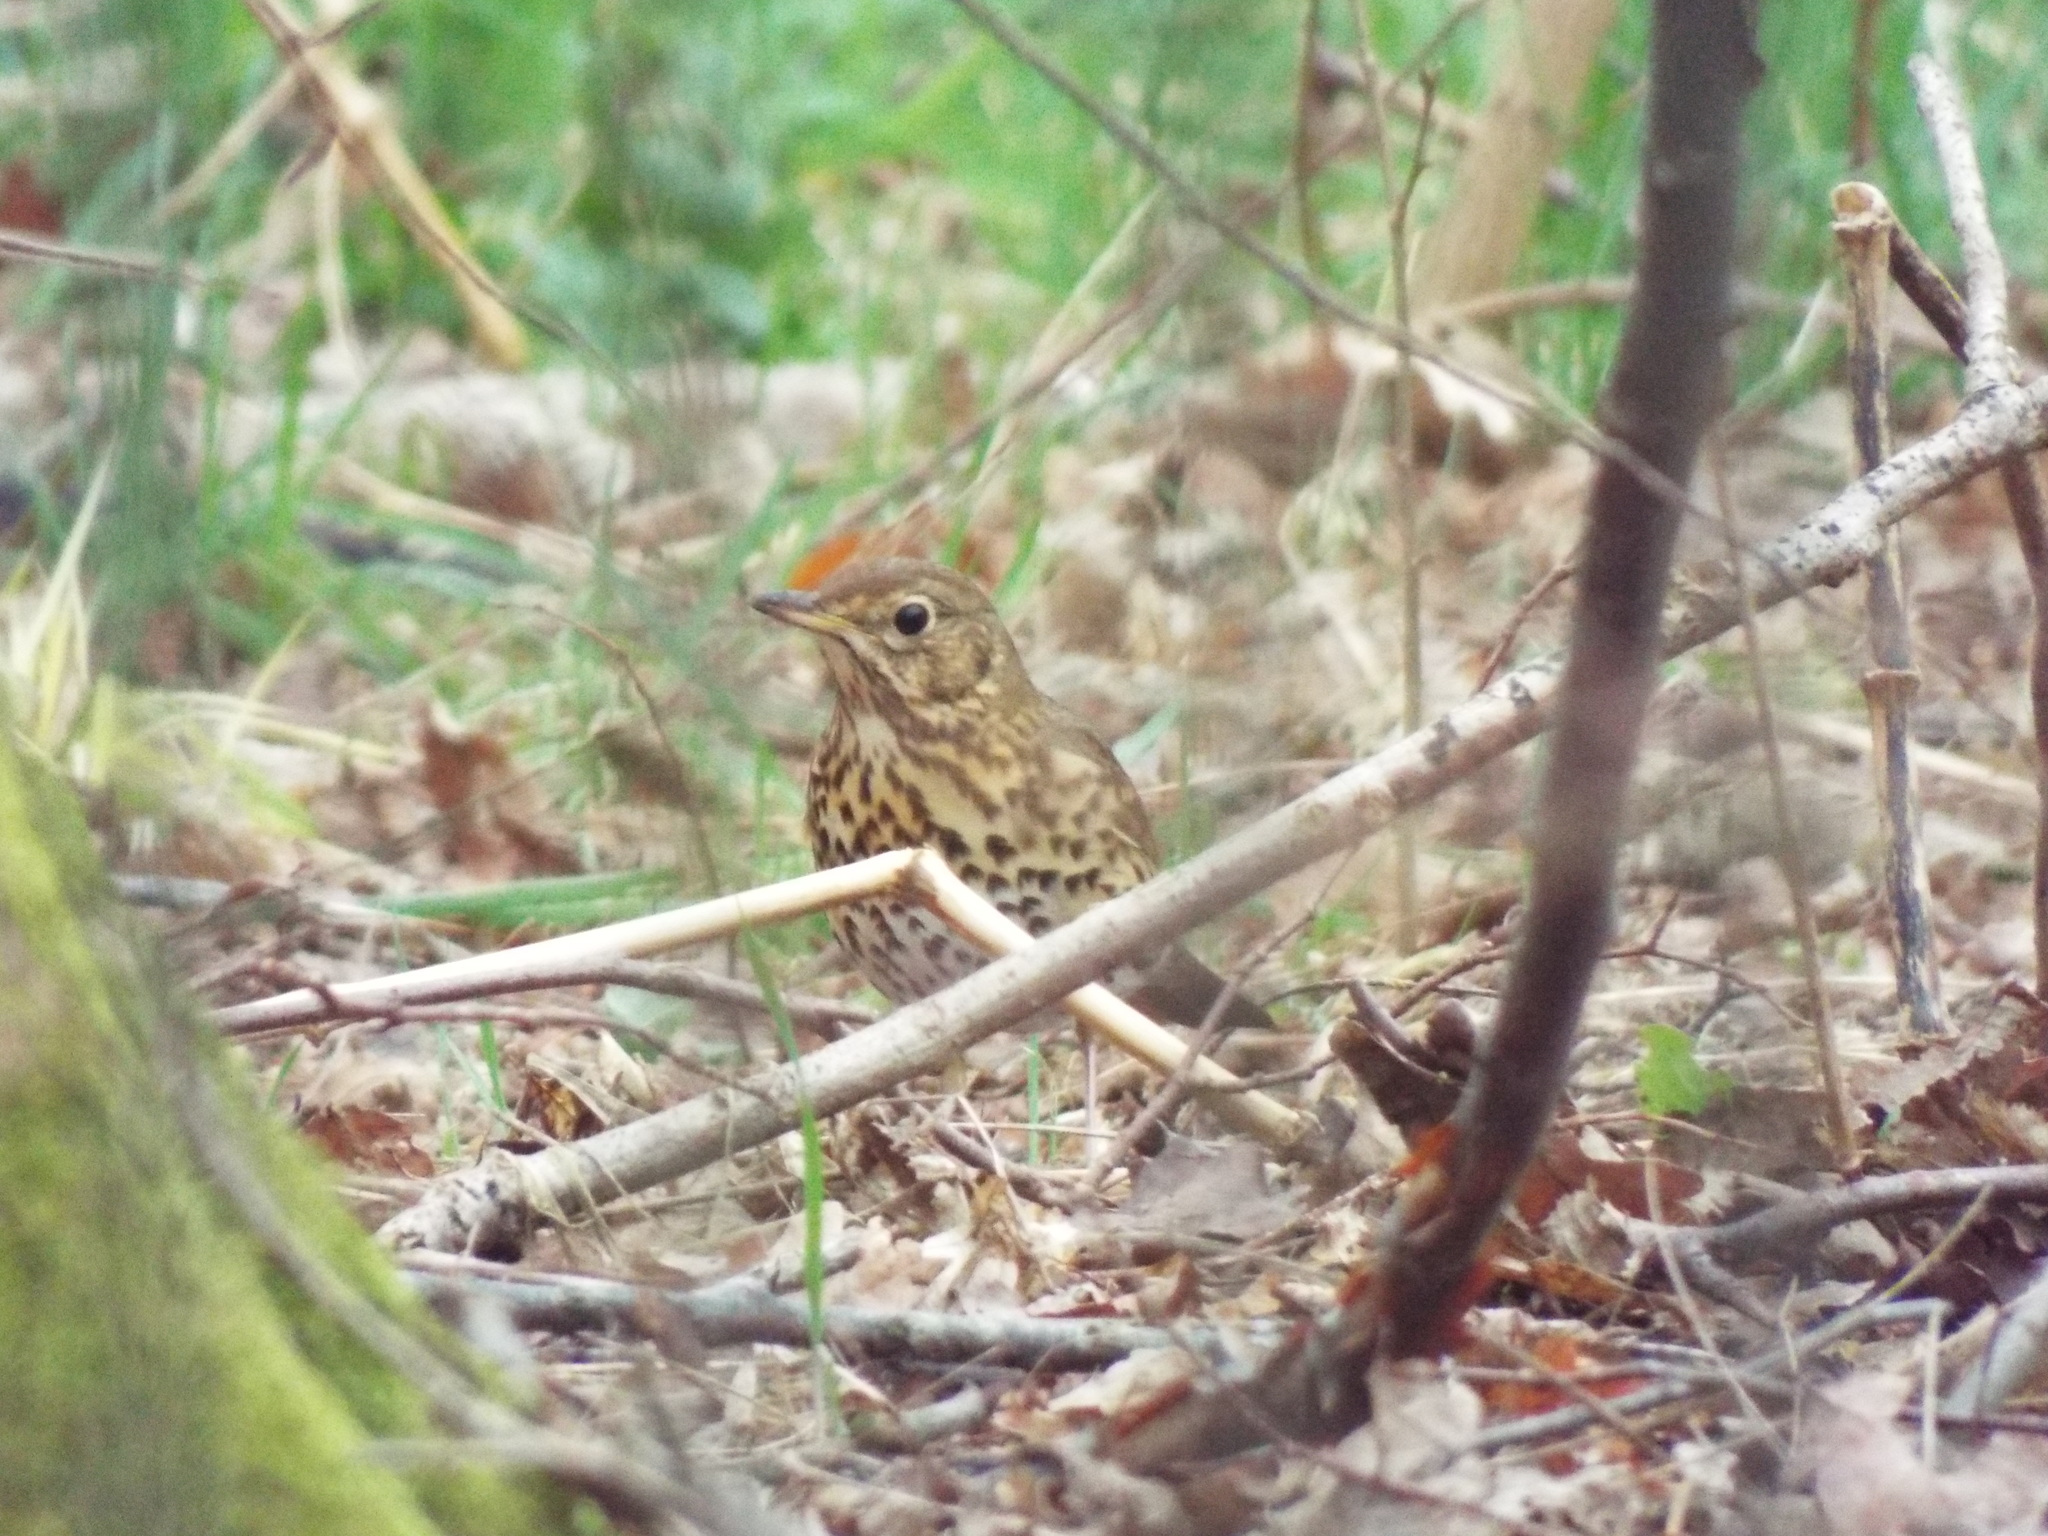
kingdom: Animalia
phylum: Chordata
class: Aves
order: Passeriformes
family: Turdidae
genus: Turdus
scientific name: Turdus philomelos
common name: Song thrush
